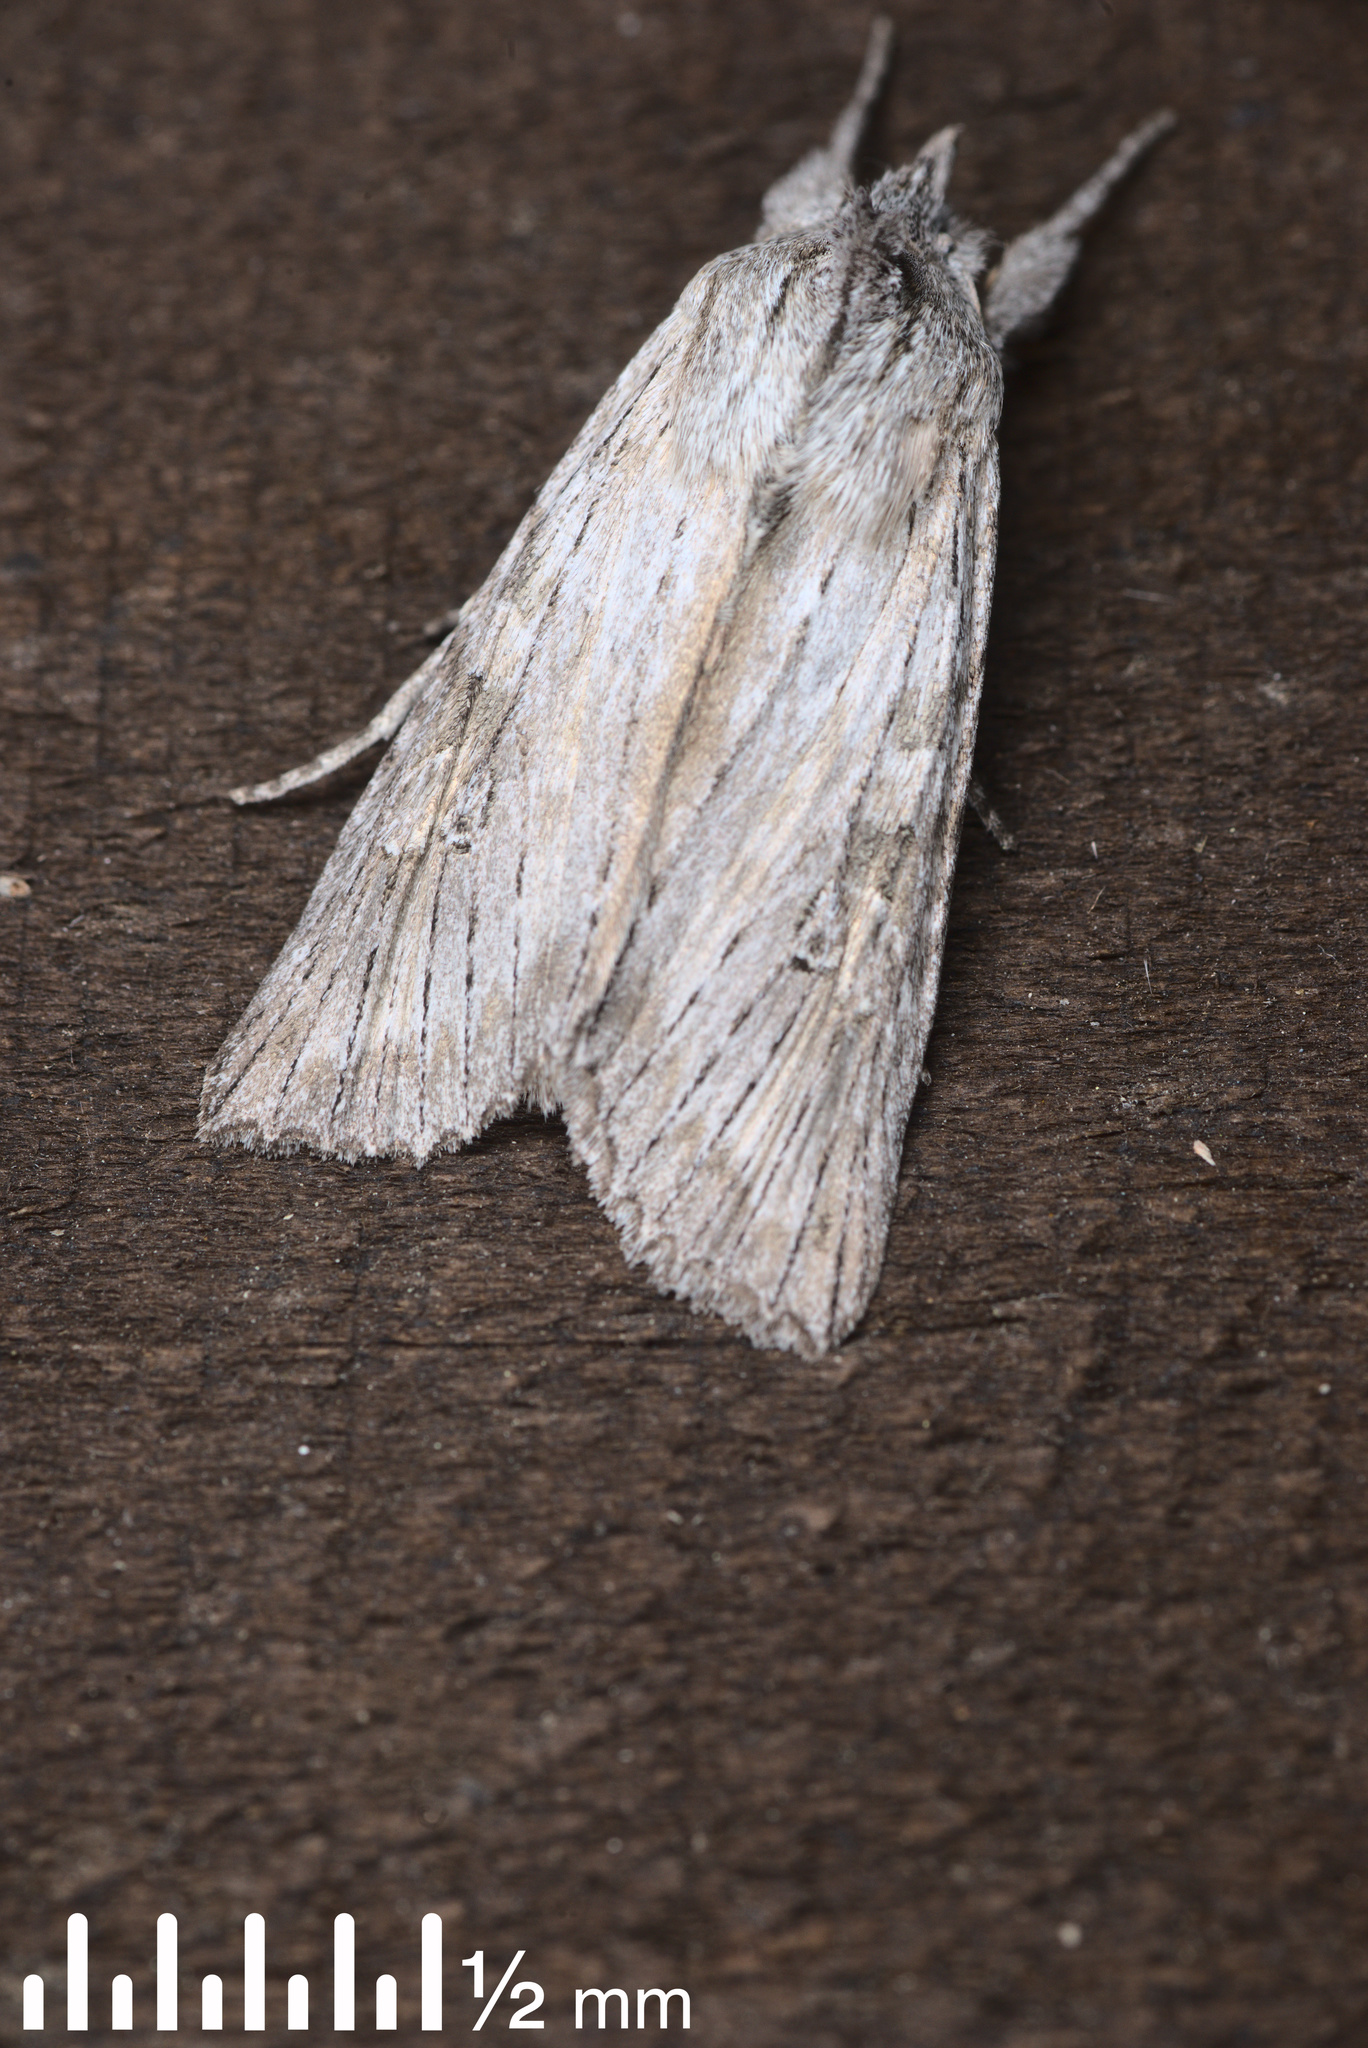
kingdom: Animalia
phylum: Arthropoda
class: Insecta
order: Lepidoptera
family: Noctuidae
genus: Physetica
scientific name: Physetica phricias
